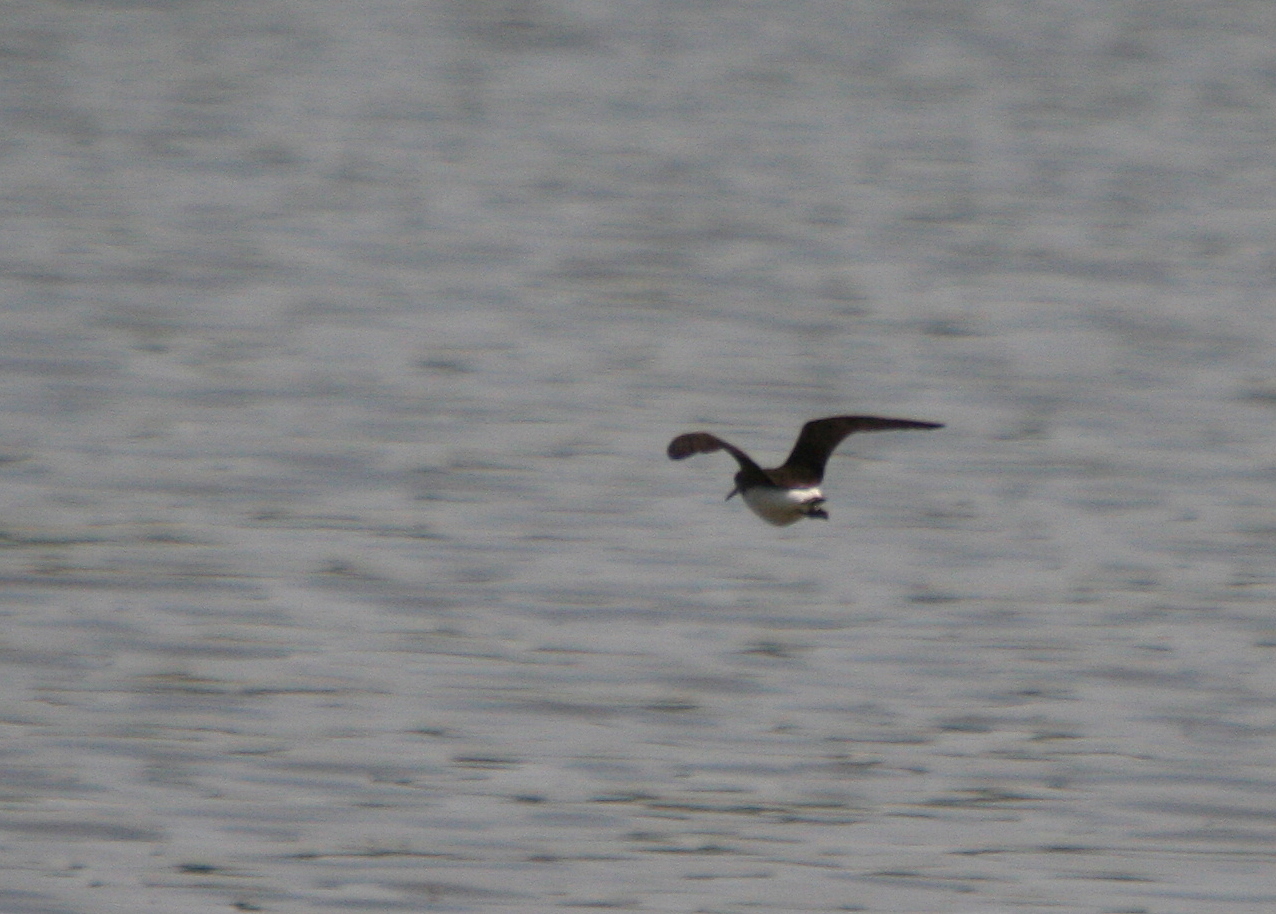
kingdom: Animalia
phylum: Chordata
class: Aves
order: Charadriiformes
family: Scolopacidae
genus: Tringa
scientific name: Tringa ochropus
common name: Green sandpiper
